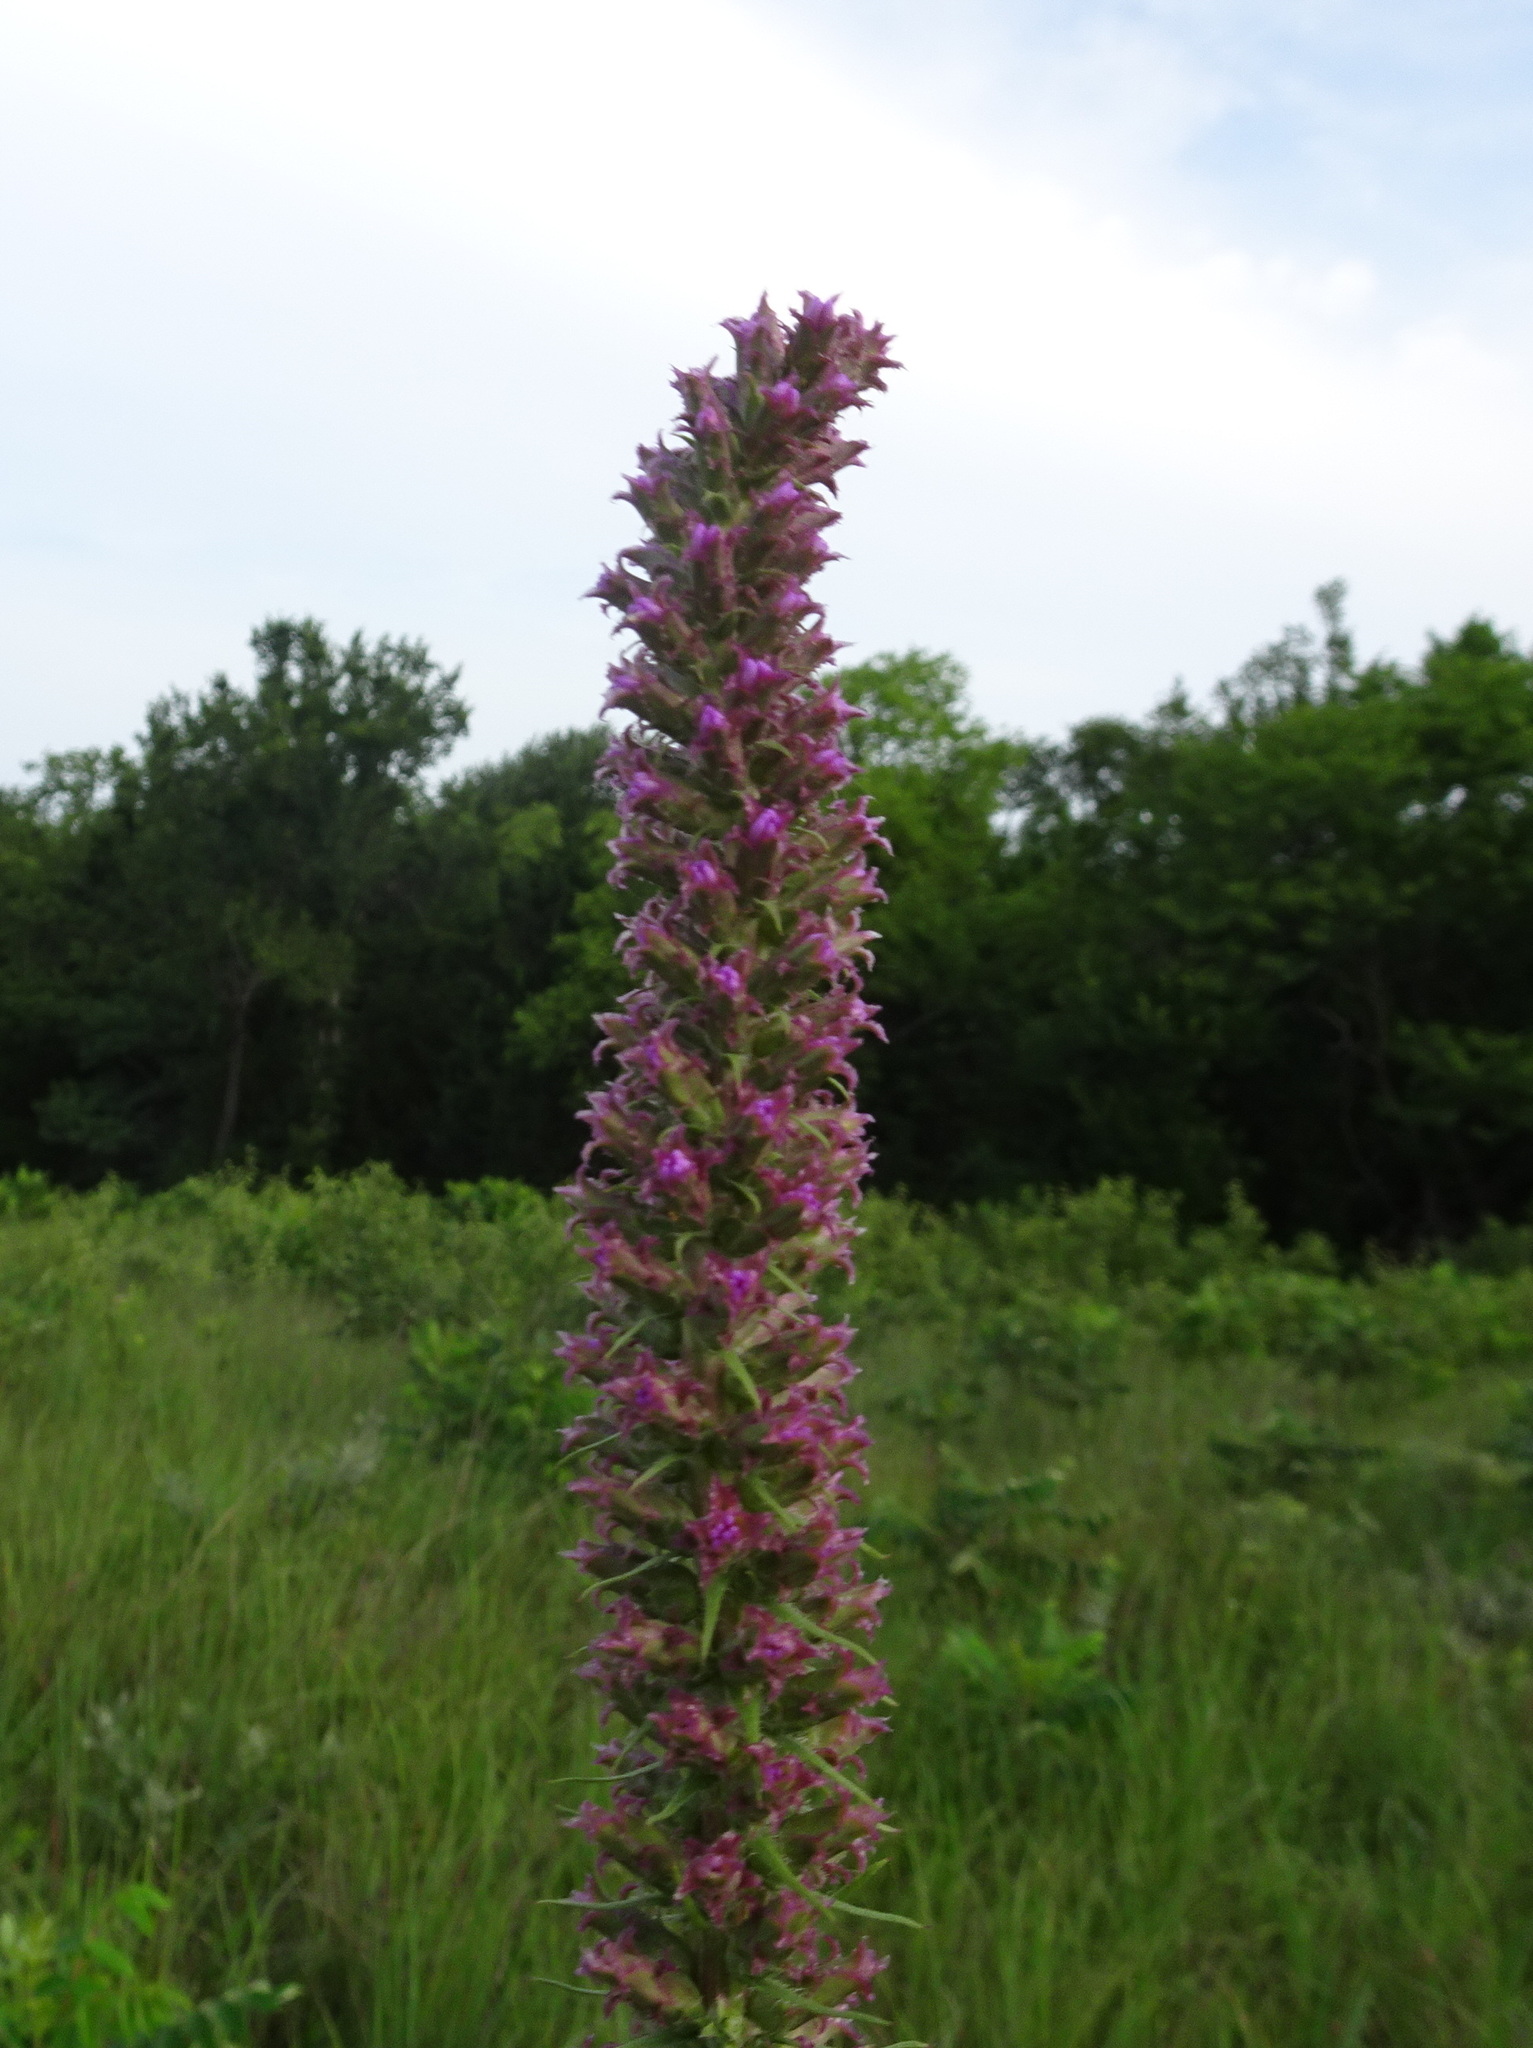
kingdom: Plantae
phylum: Tracheophyta
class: Magnoliopsida
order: Asterales
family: Asteraceae
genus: Liatris
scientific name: Liatris pycnostachya
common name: Cattail gayfeather
